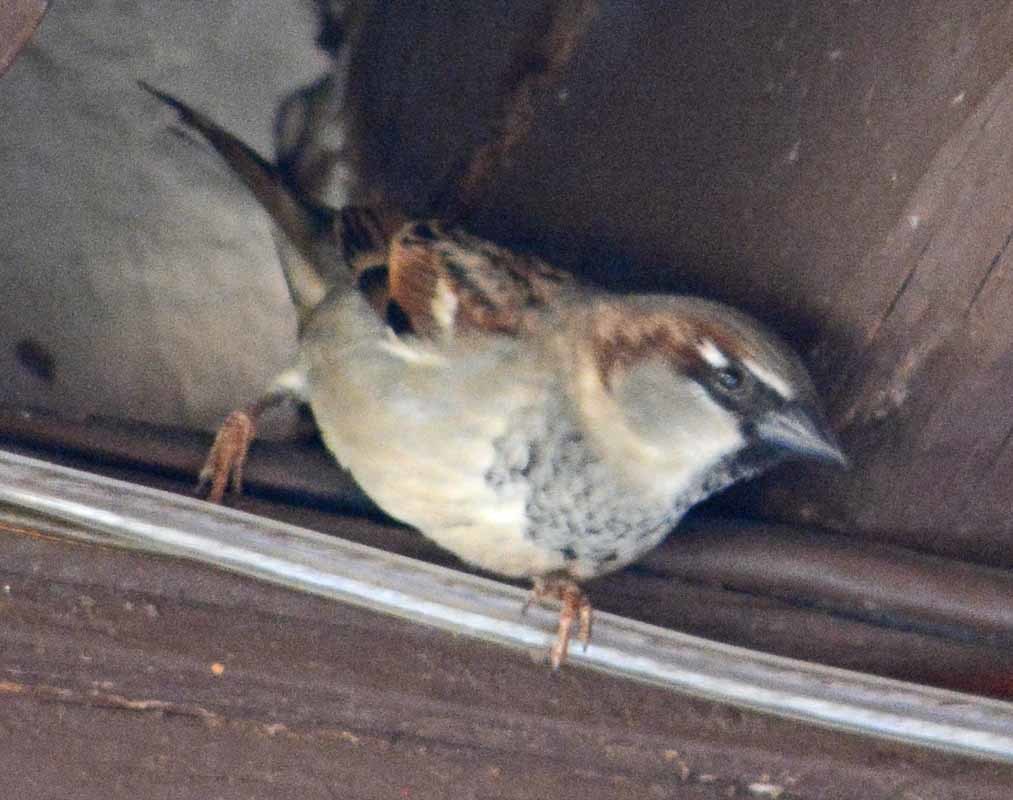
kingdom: Animalia
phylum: Chordata
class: Aves
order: Passeriformes
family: Passeridae
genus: Passer
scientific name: Passer domesticus
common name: House sparrow
